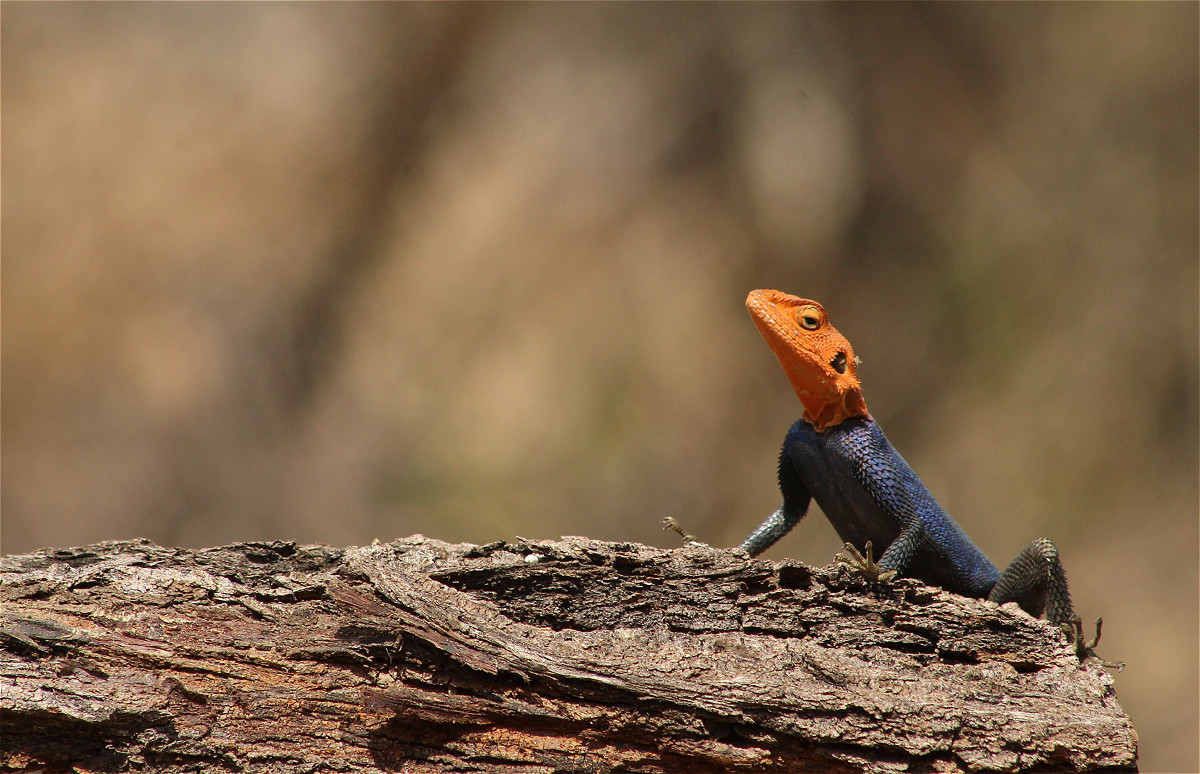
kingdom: Animalia
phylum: Chordata
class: Squamata
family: Agamidae
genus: Agama
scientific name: Agama planiceps
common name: Namib rock agama
